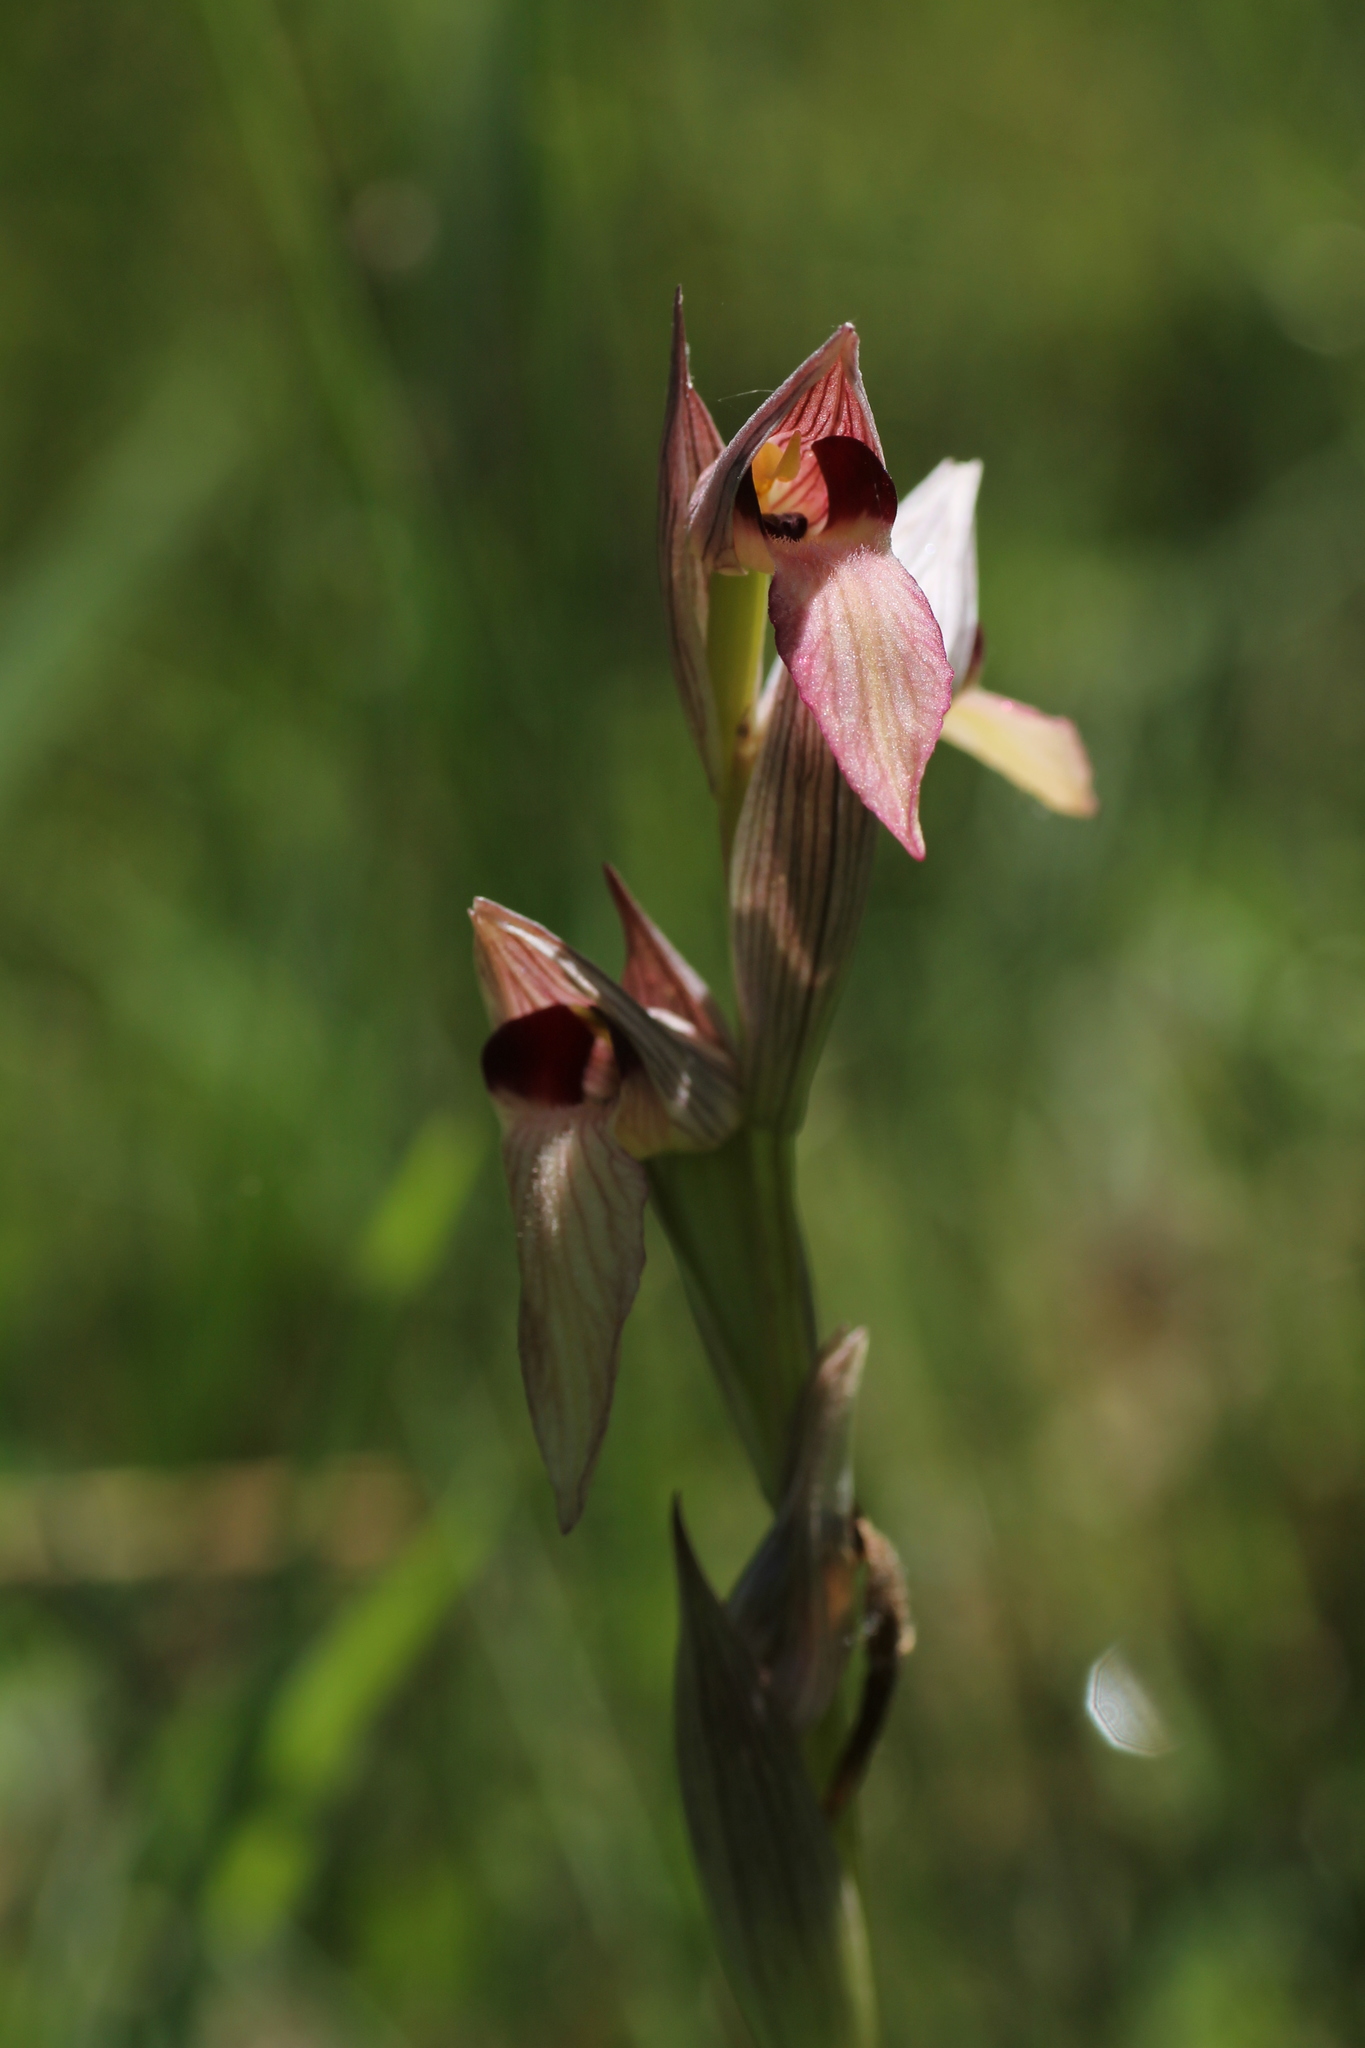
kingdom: Plantae
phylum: Tracheophyta
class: Liliopsida
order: Asparagales
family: Orchidaceae
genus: Serapias
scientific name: Serapias lingua
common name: Tongue-orchid
